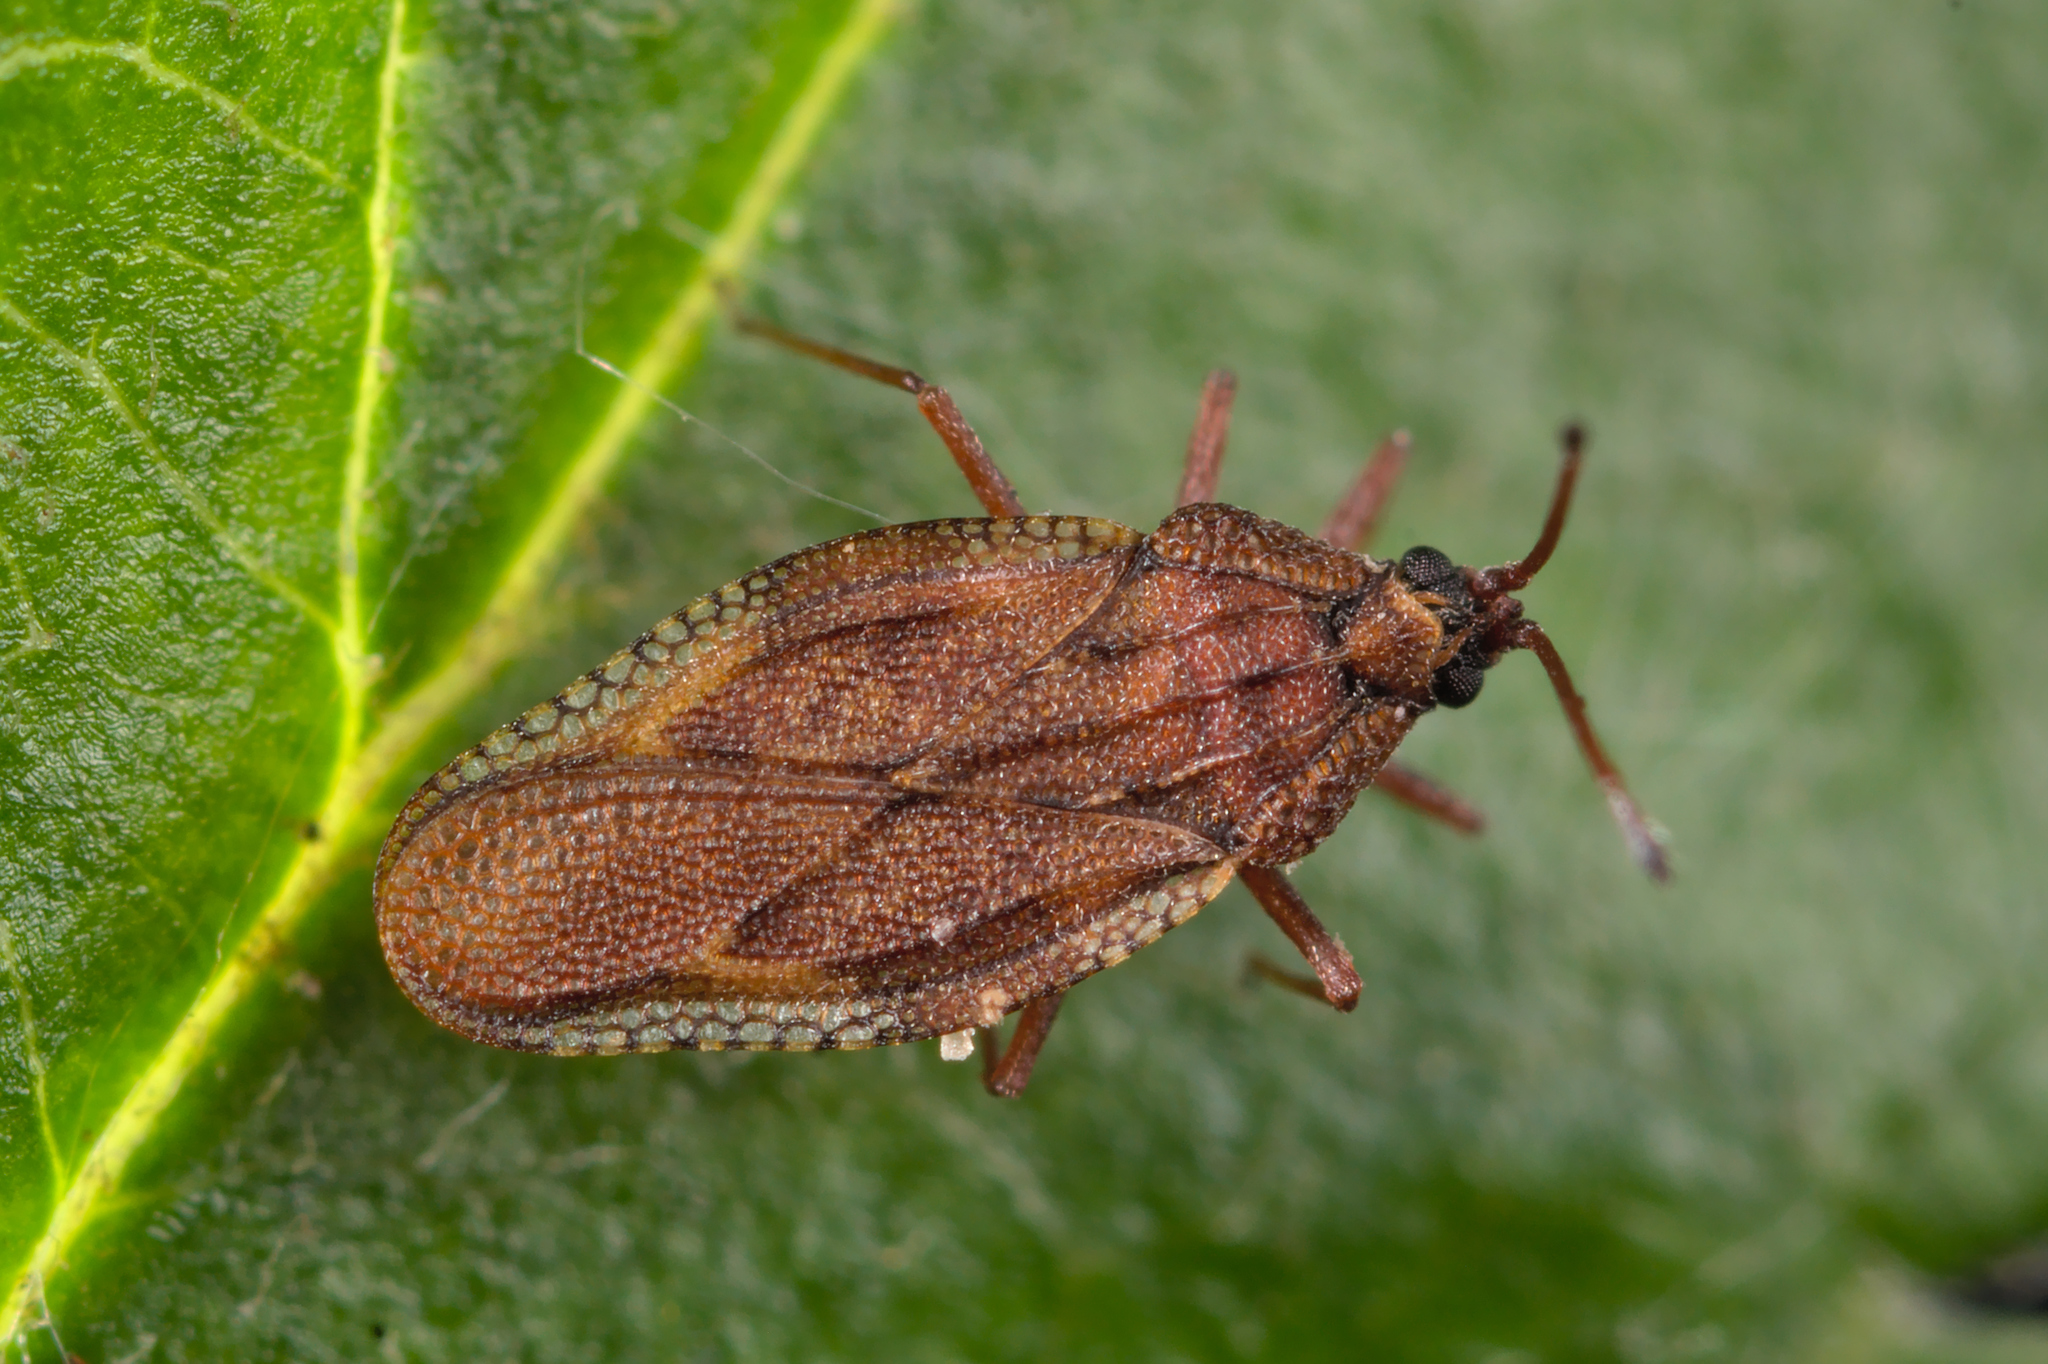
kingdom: Animalia
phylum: Arthropoda
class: Insecta
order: Hemiptera
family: Tingidae
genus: Physatocheila
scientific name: Physatocheila costata
